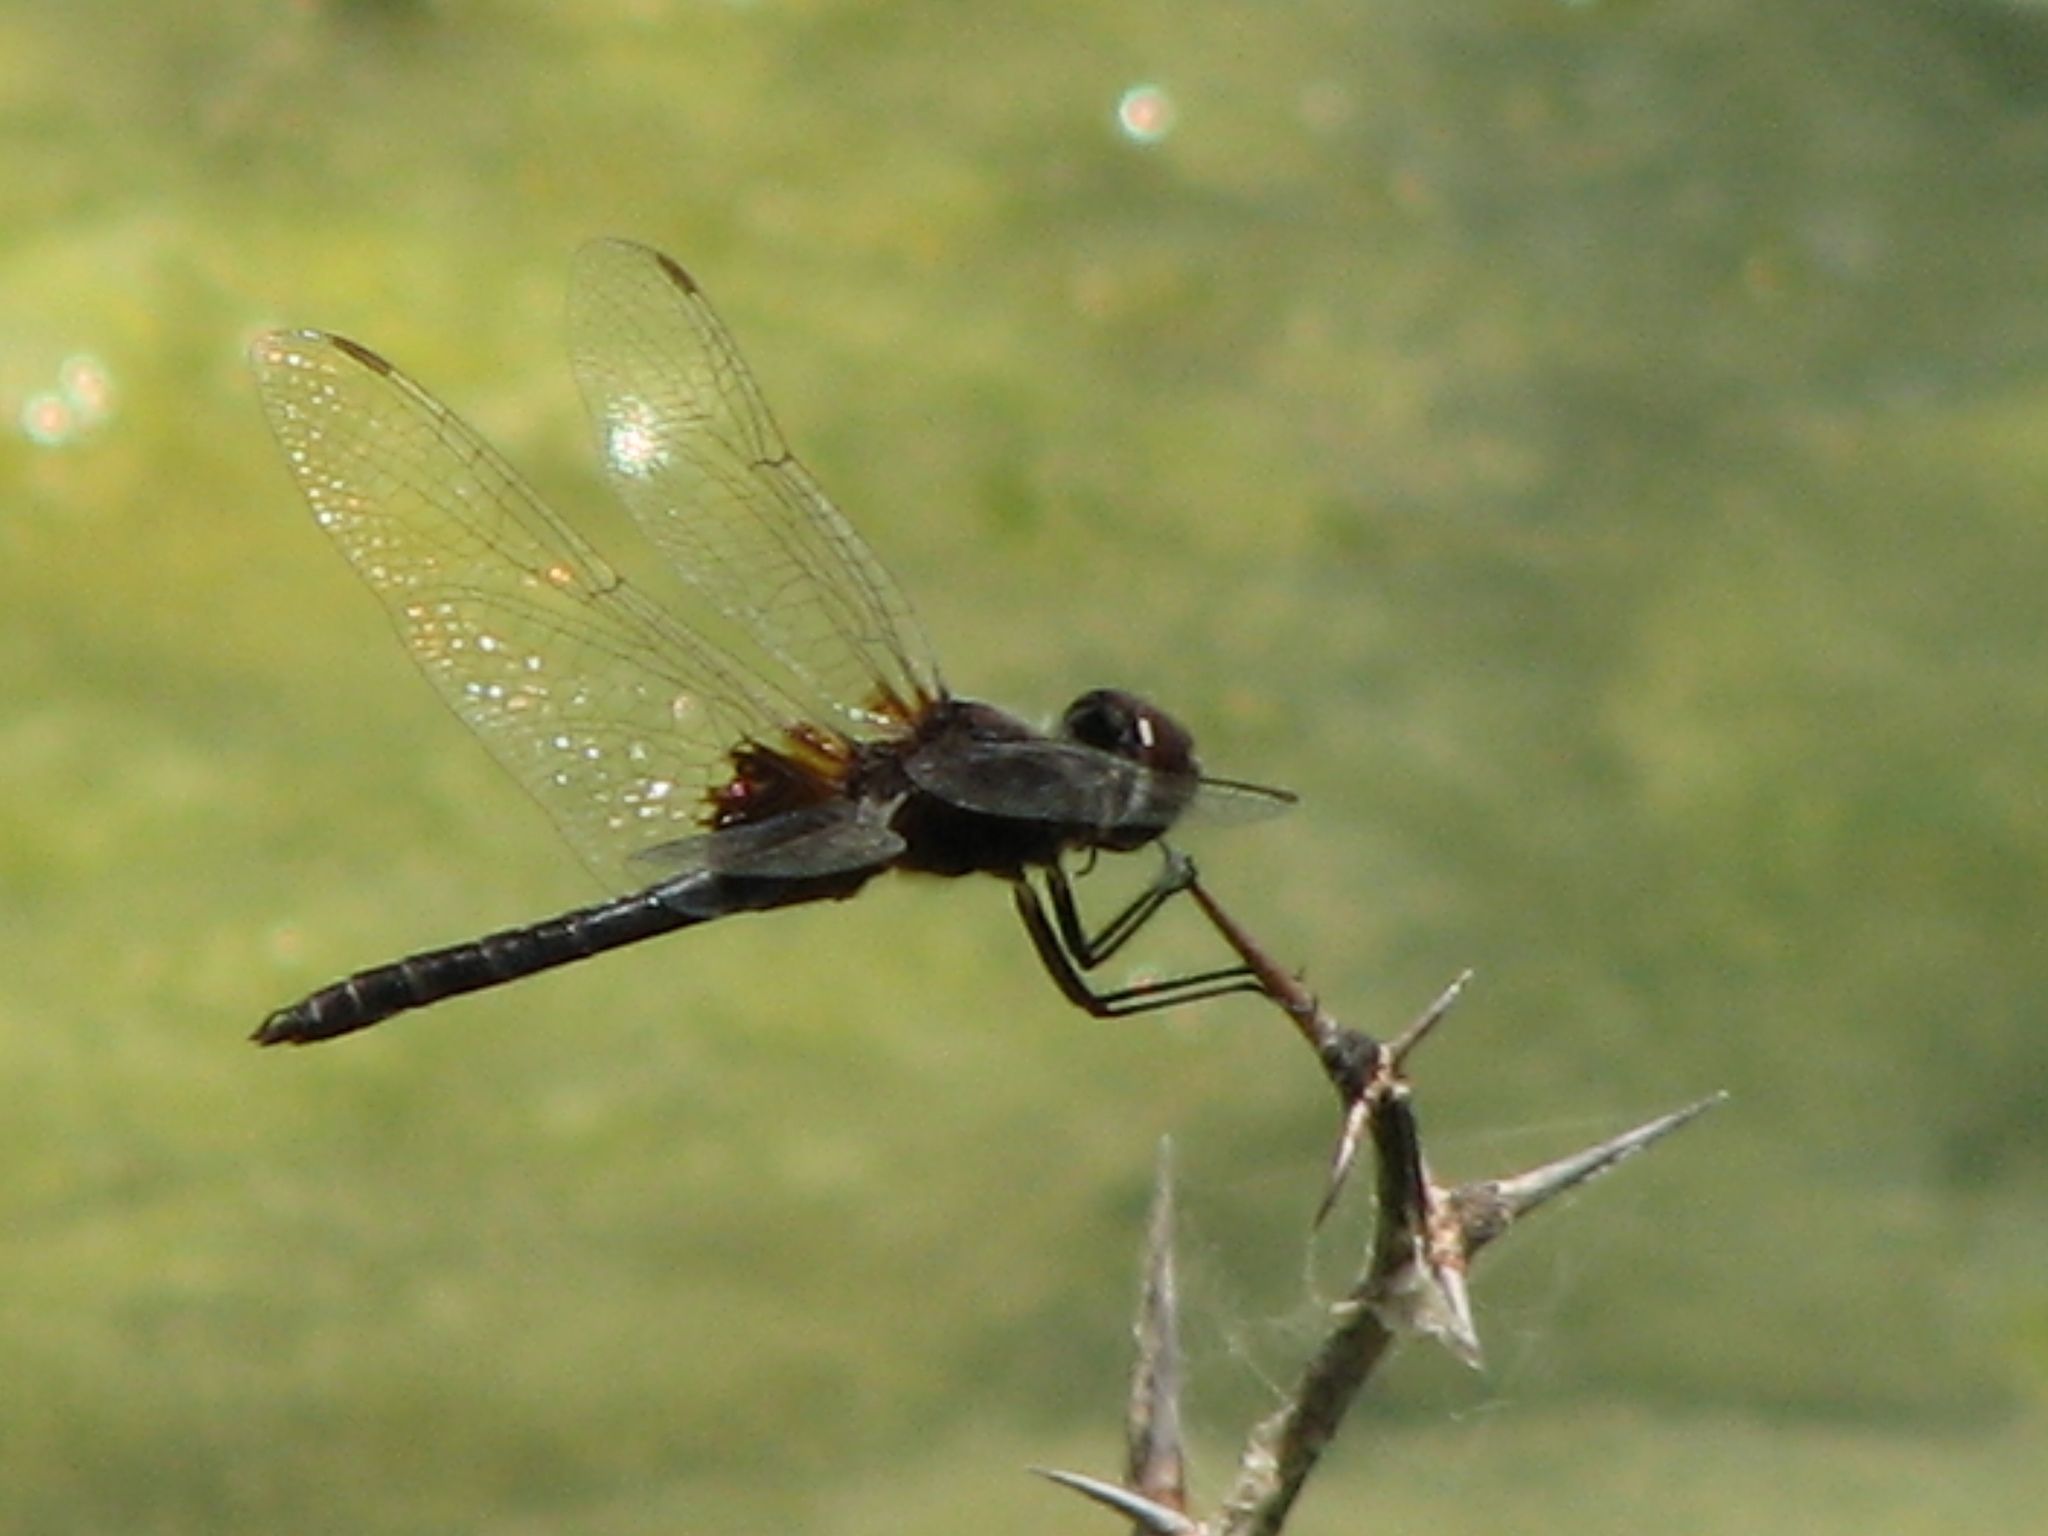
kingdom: Animalia
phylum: Arthropoda
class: Insecta
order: Odonata
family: Libellulidae
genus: Macrodiplax
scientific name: Macrodiplax balteata
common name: Marl pennant
